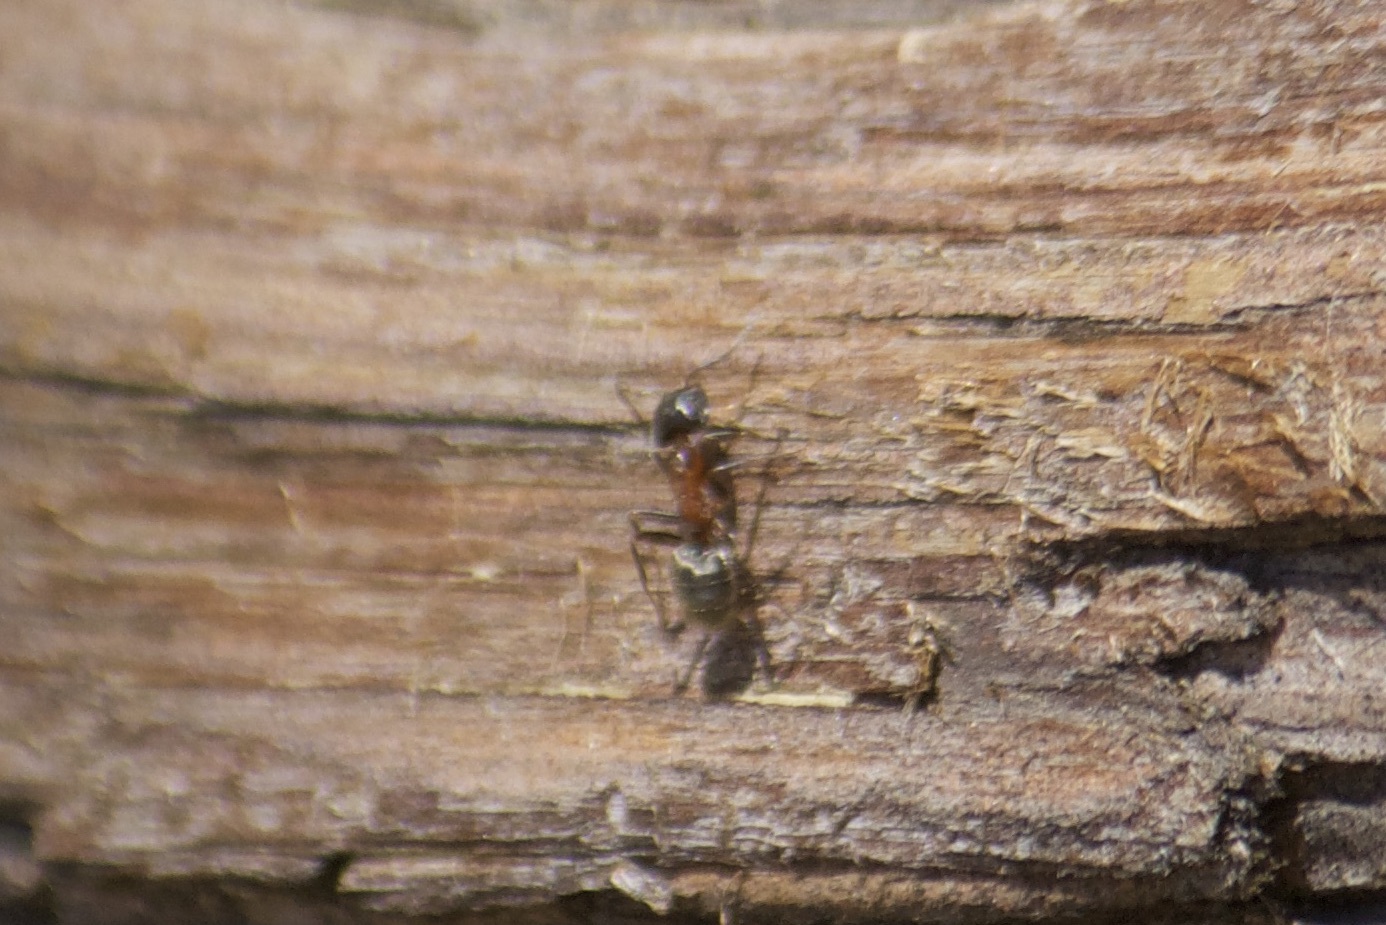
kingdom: Animalia
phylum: Arthropoda
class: Insecta
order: Hymenoptera
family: Formicidae
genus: Liometopum
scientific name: Liometopum occidentale
